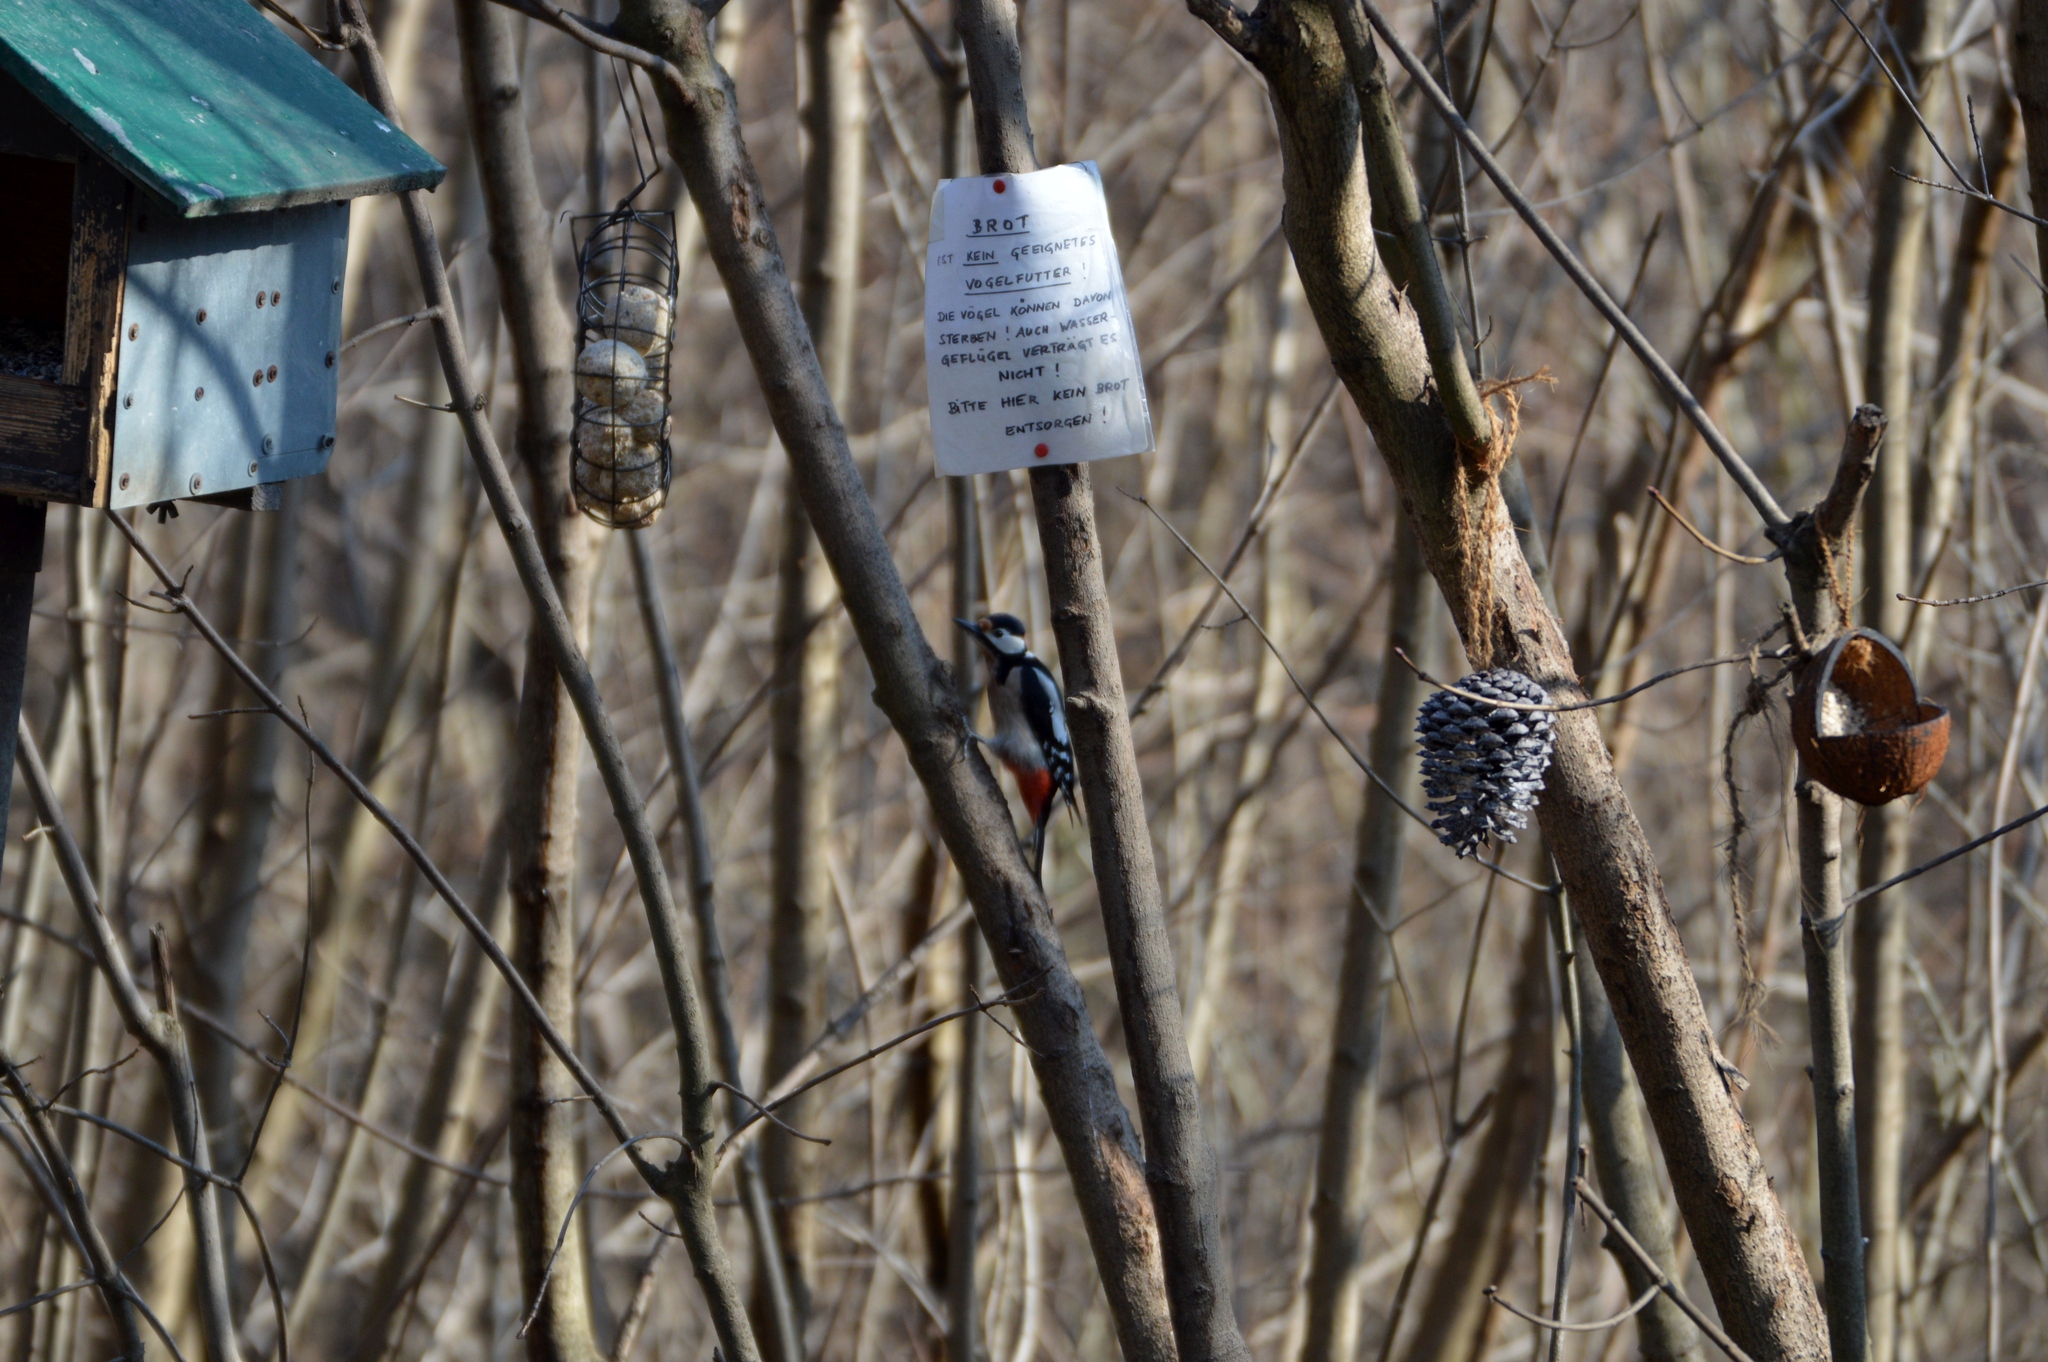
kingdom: Animalia
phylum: Chordata
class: Aves
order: Piciformes
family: Picidae
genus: Dendrocopos
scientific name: Dendrocopos major
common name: Great spotted woodpecker
